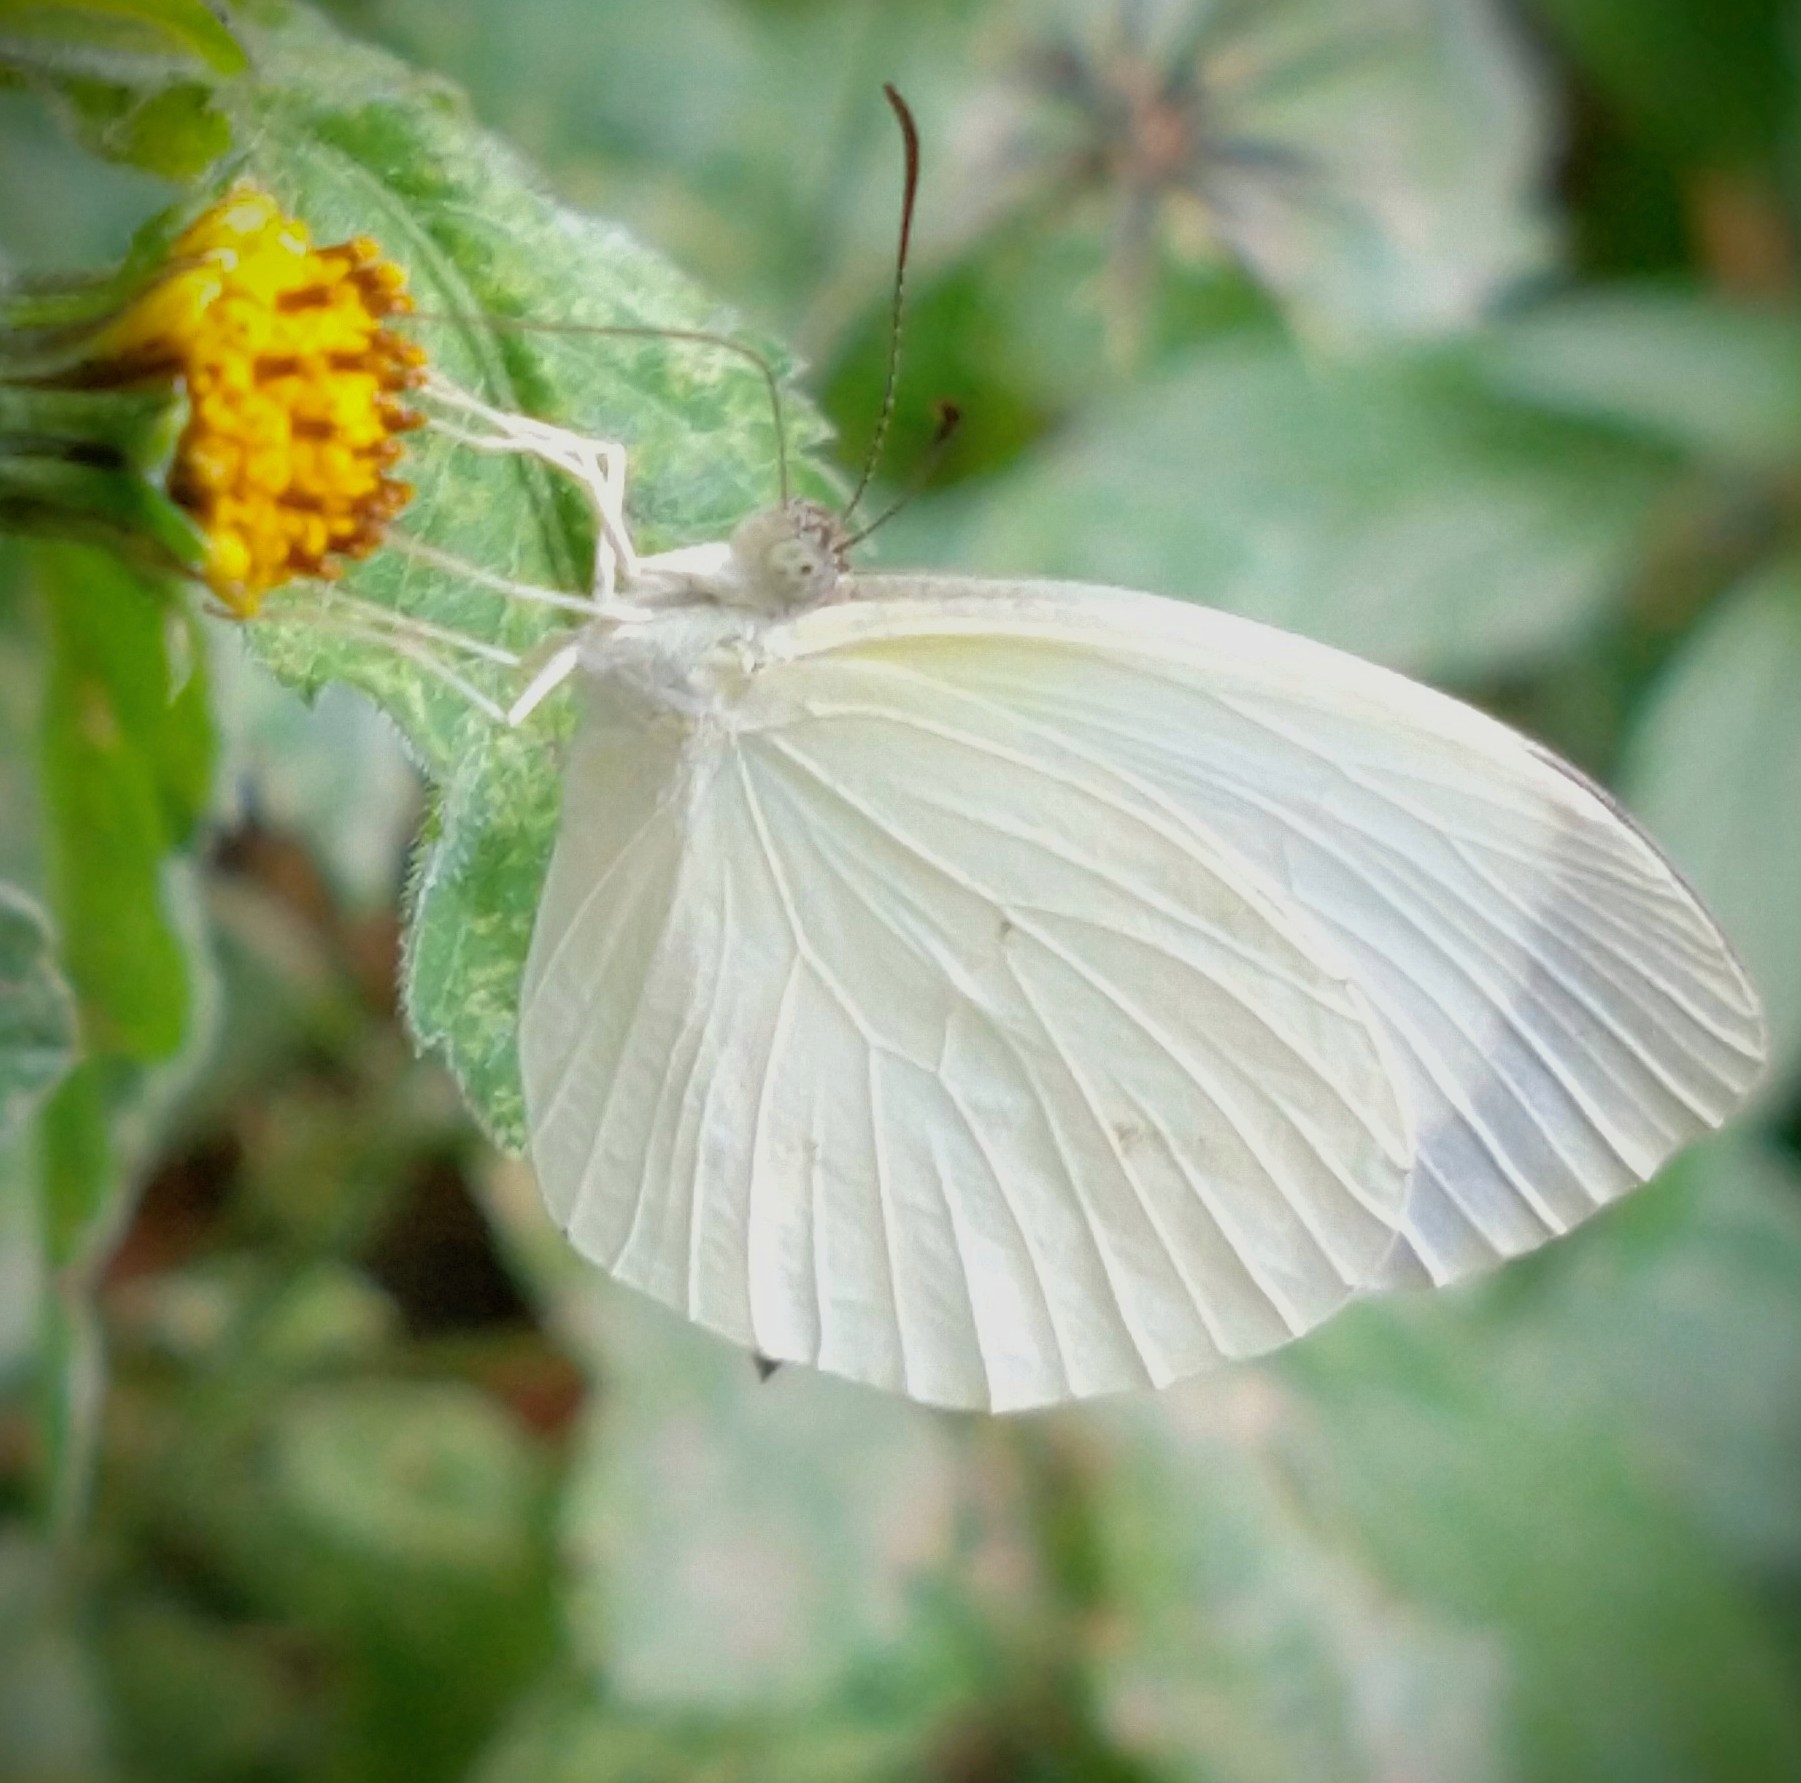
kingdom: Animalia
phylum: Arthropoda
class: Insecta
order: Lepidoptera
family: Pieridae
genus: Abaeis
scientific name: Abaeis albula
